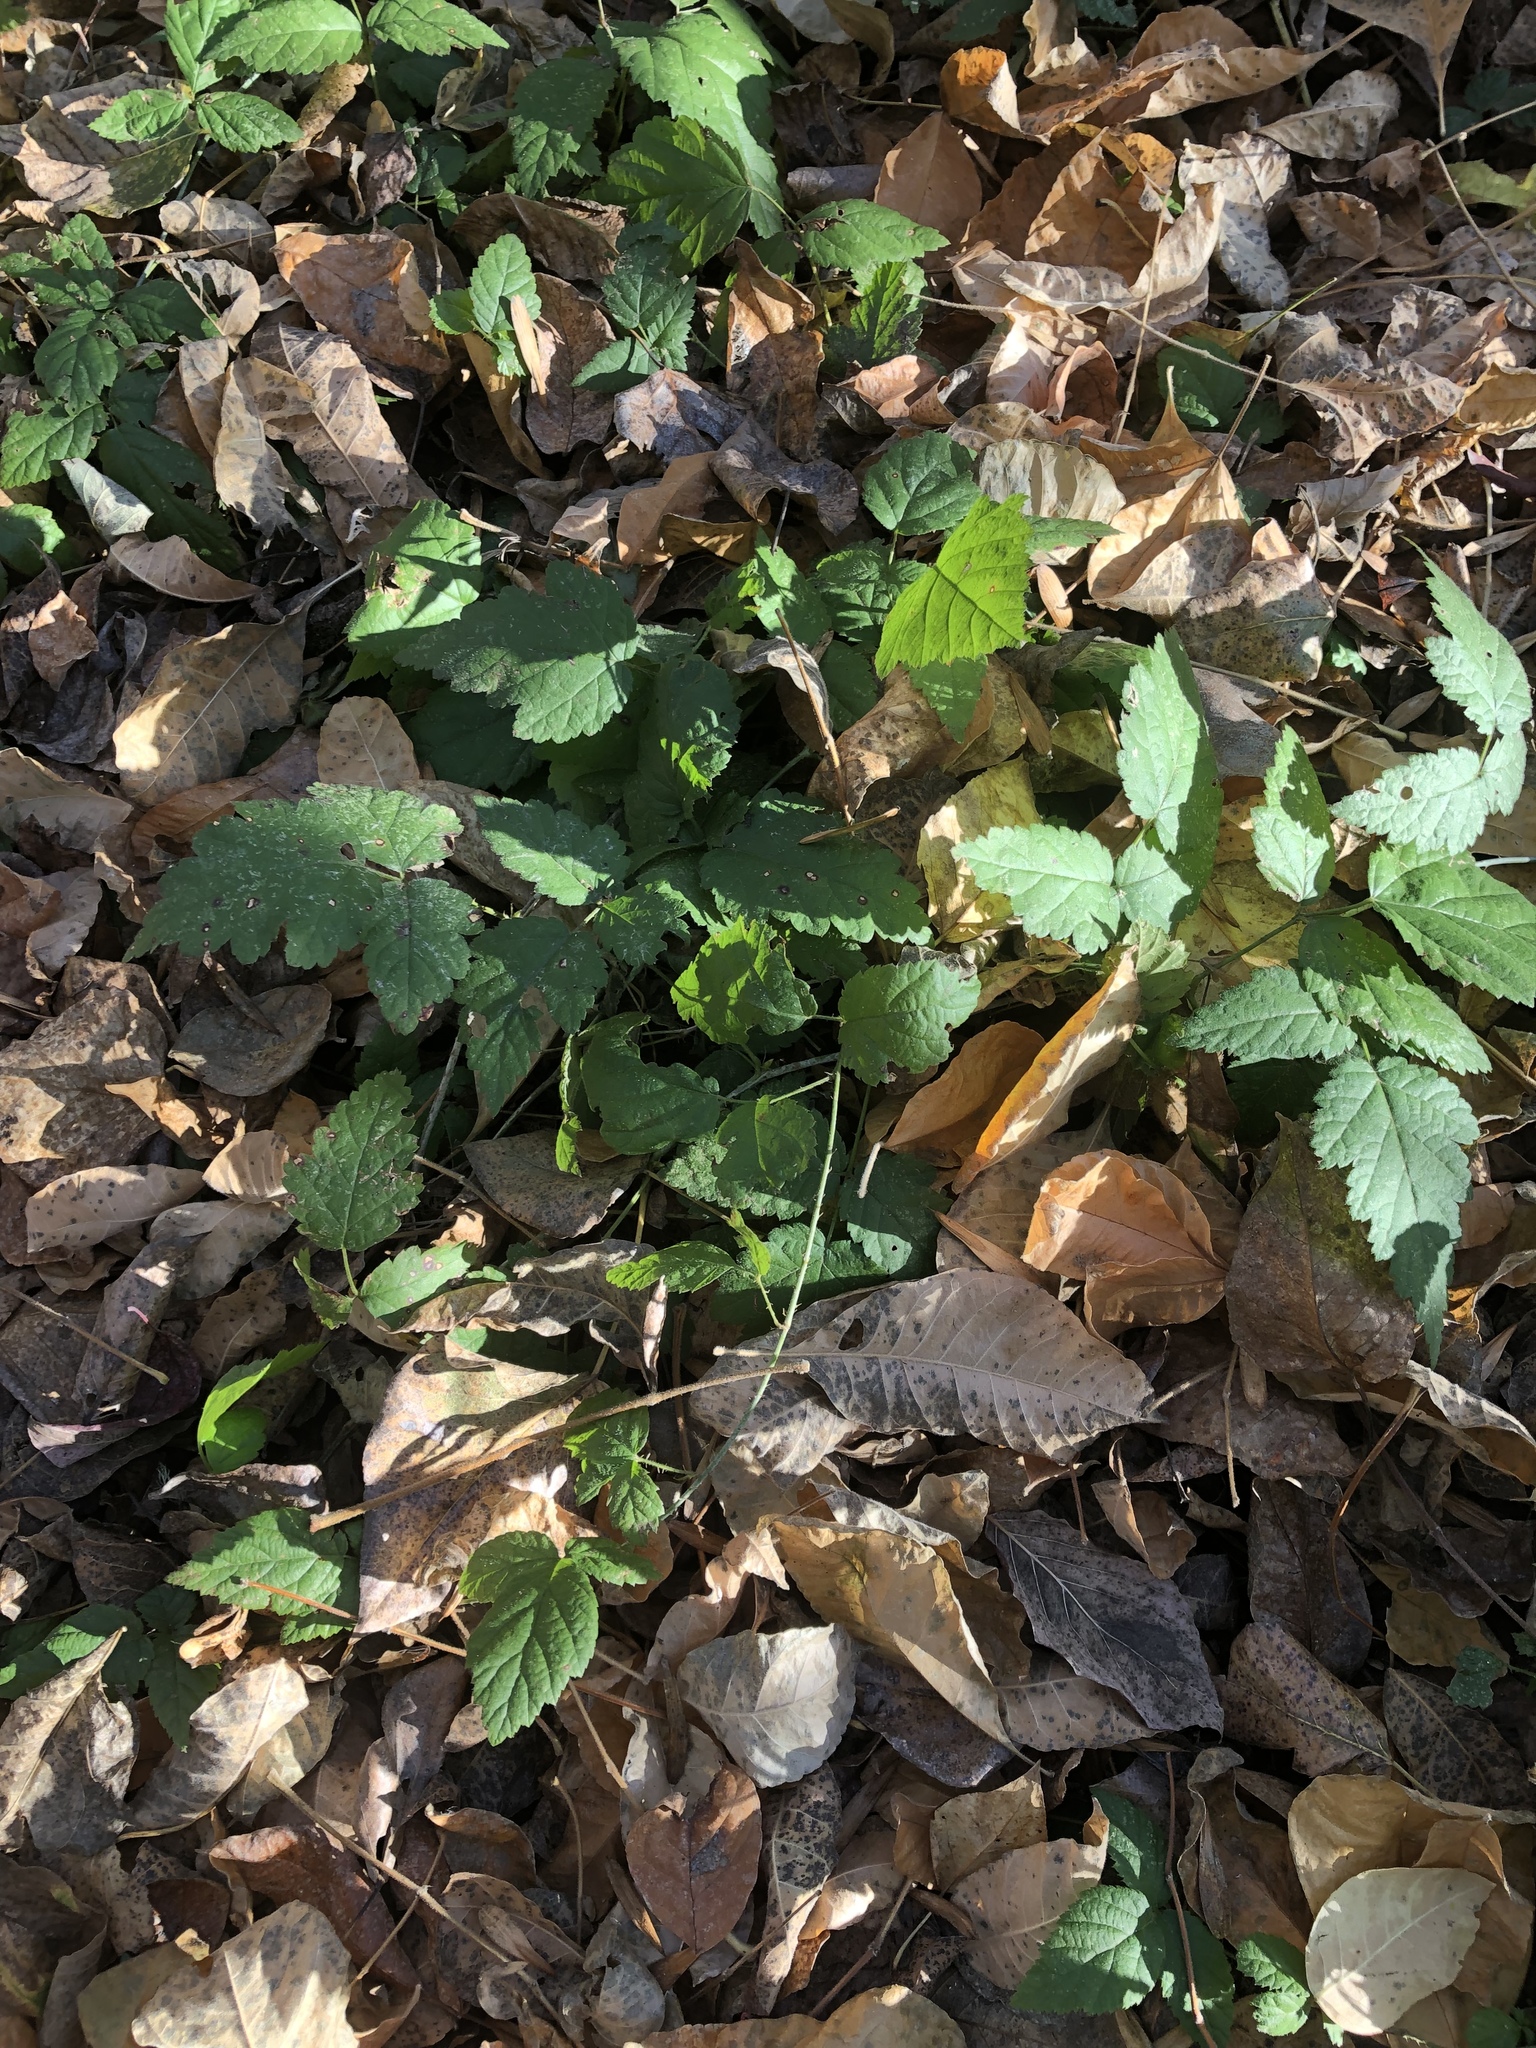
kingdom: Plantae
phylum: Tracheophyta
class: Magnoliopsida
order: Rosales
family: Rosaceae
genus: Rubus
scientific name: Rubus ursinus
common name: Pacific blackberry
